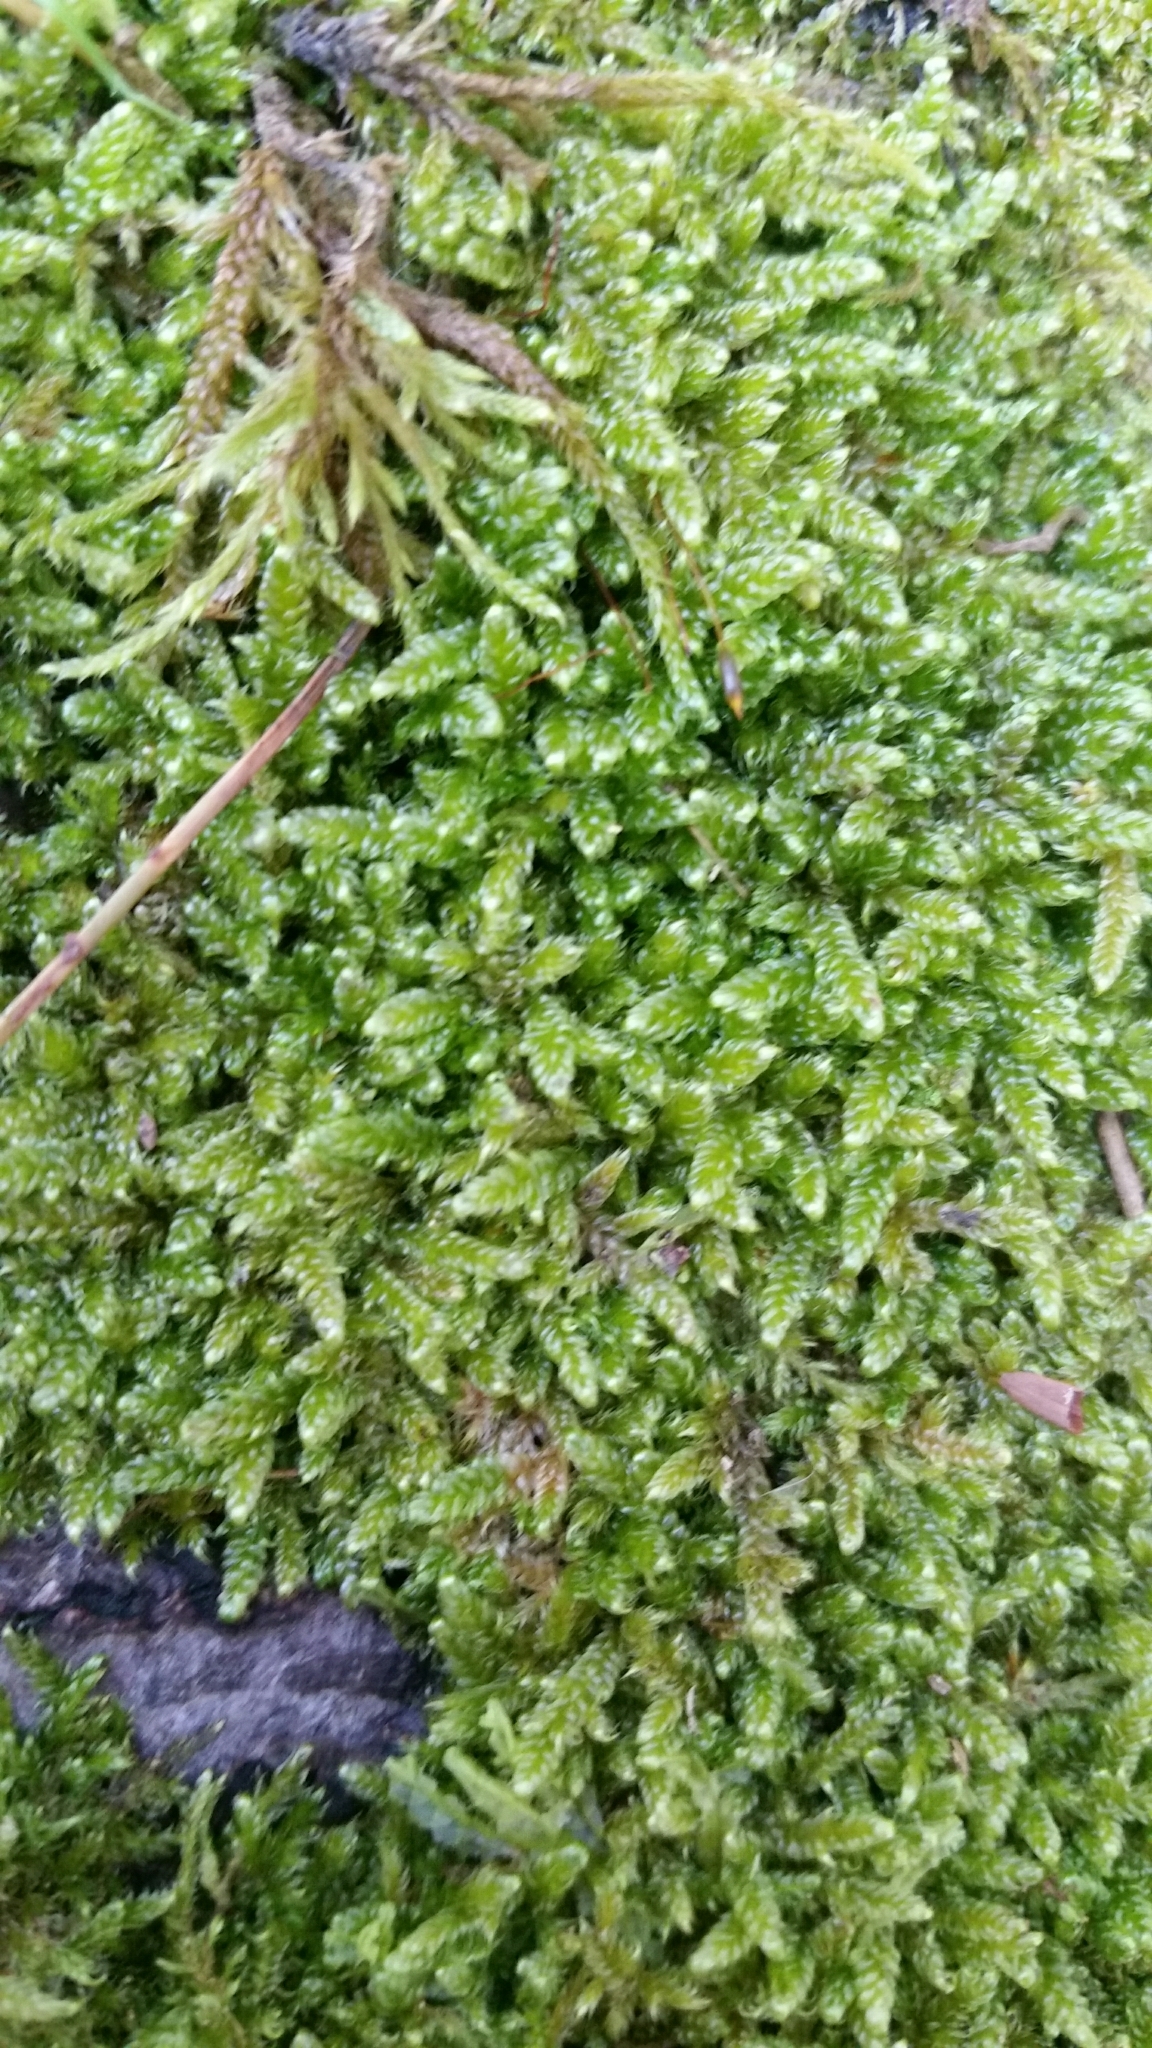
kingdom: Plantae
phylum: Bryophyta
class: Bryopsida
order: Hypnales
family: Hypnaceae
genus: Hypnum
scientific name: Hypnum cupressiforme
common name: Cypress-leaved plait-moss
